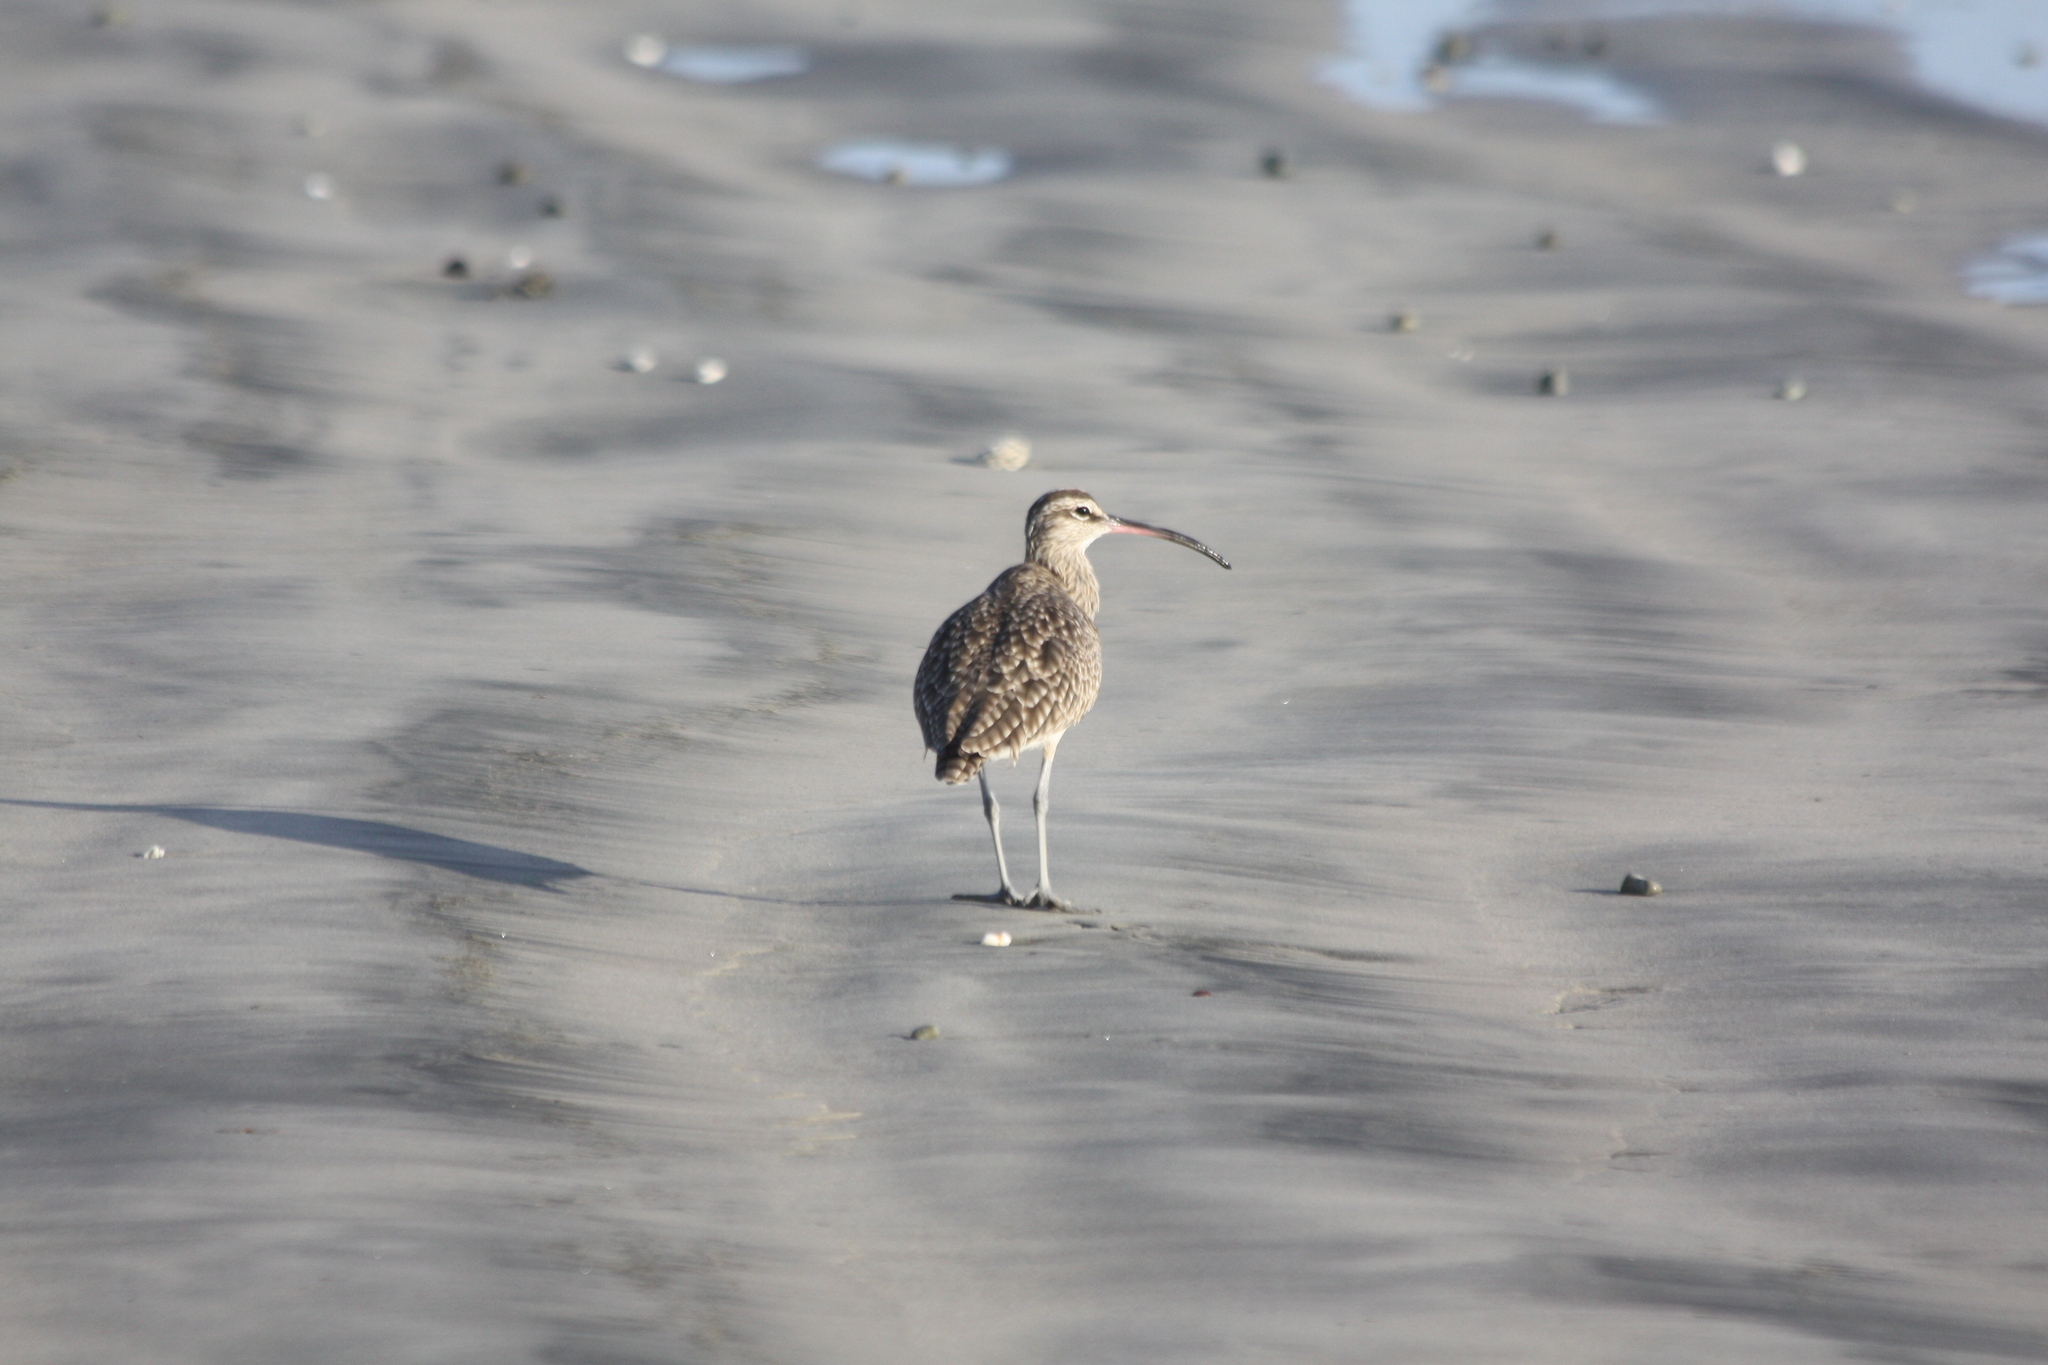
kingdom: Animalia
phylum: Chordata
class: Aves
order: Charadriiformes
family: Scolopacidae
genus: Numenius
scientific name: Numenius phaeopus
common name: Whimbrel
